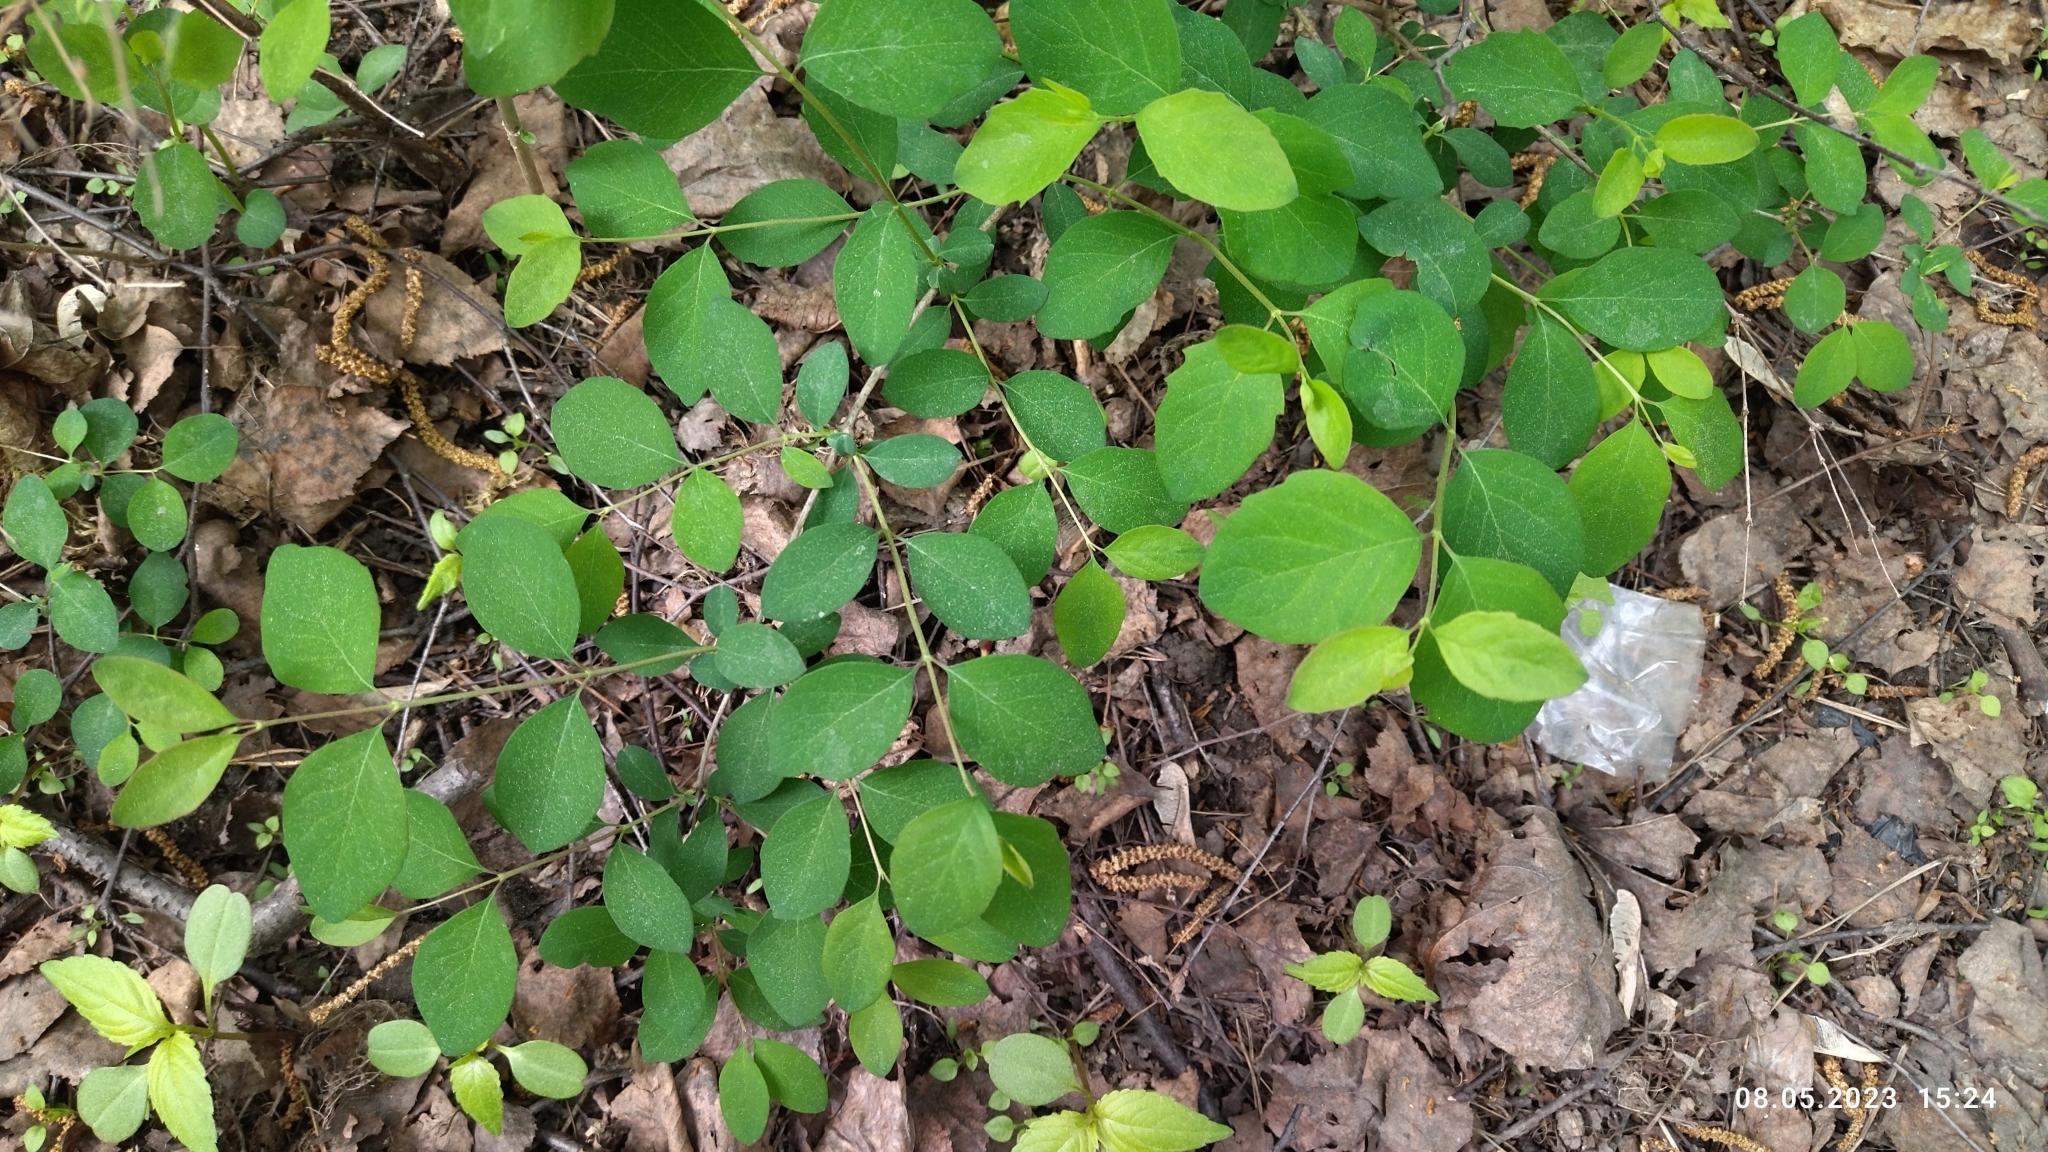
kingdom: Plantae
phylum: Tracheophyta
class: Magnoliopsida
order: Dipsacales
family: Caprifoliaceae
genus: Symphoricarpos
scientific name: Symphoricarpos albus
